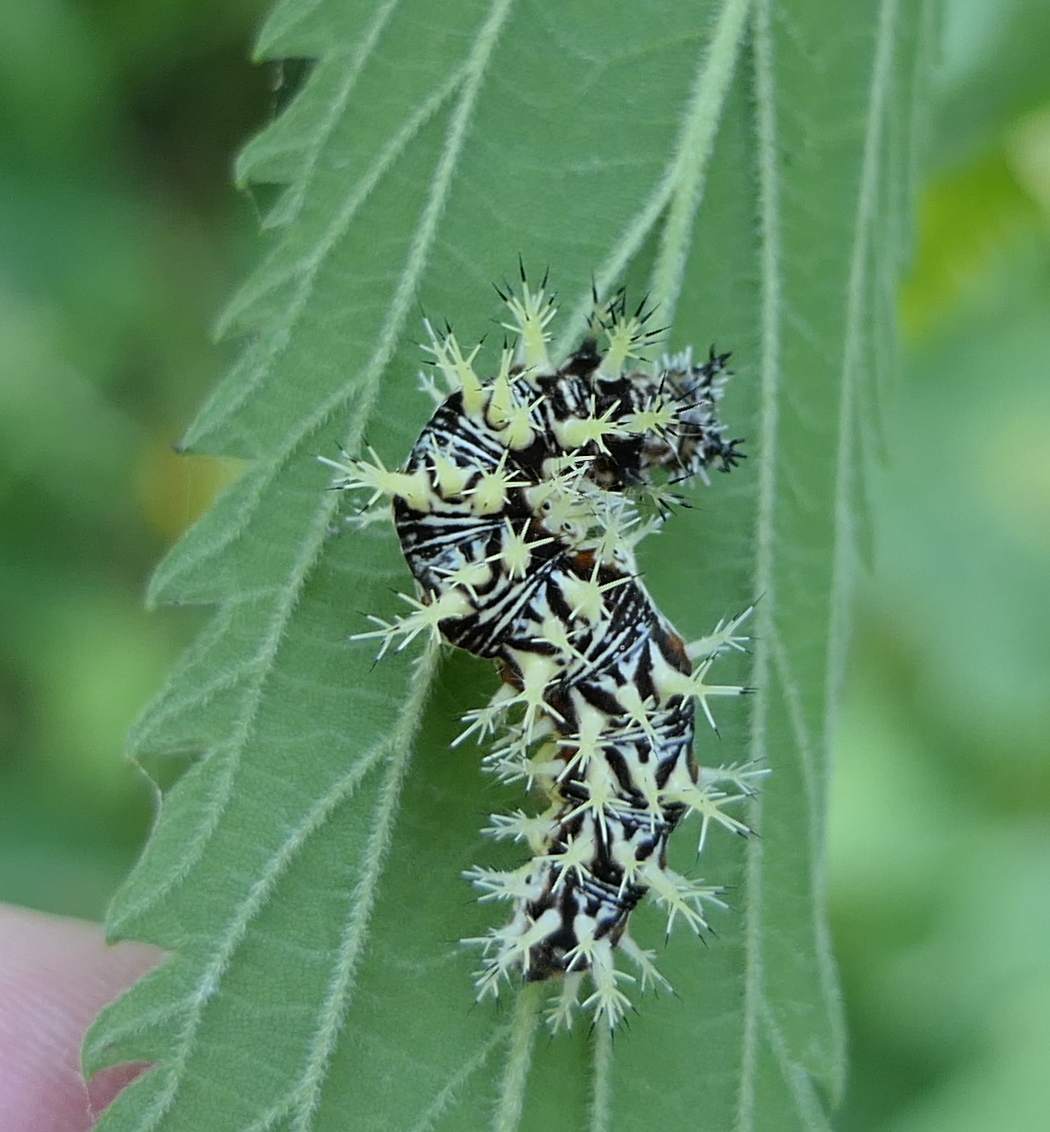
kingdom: Animalia
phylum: Arthropoda
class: Insecta
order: Lepidoptera
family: Nymphalidae
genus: Polygonia
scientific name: Polygonia comma
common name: Eastern comma
